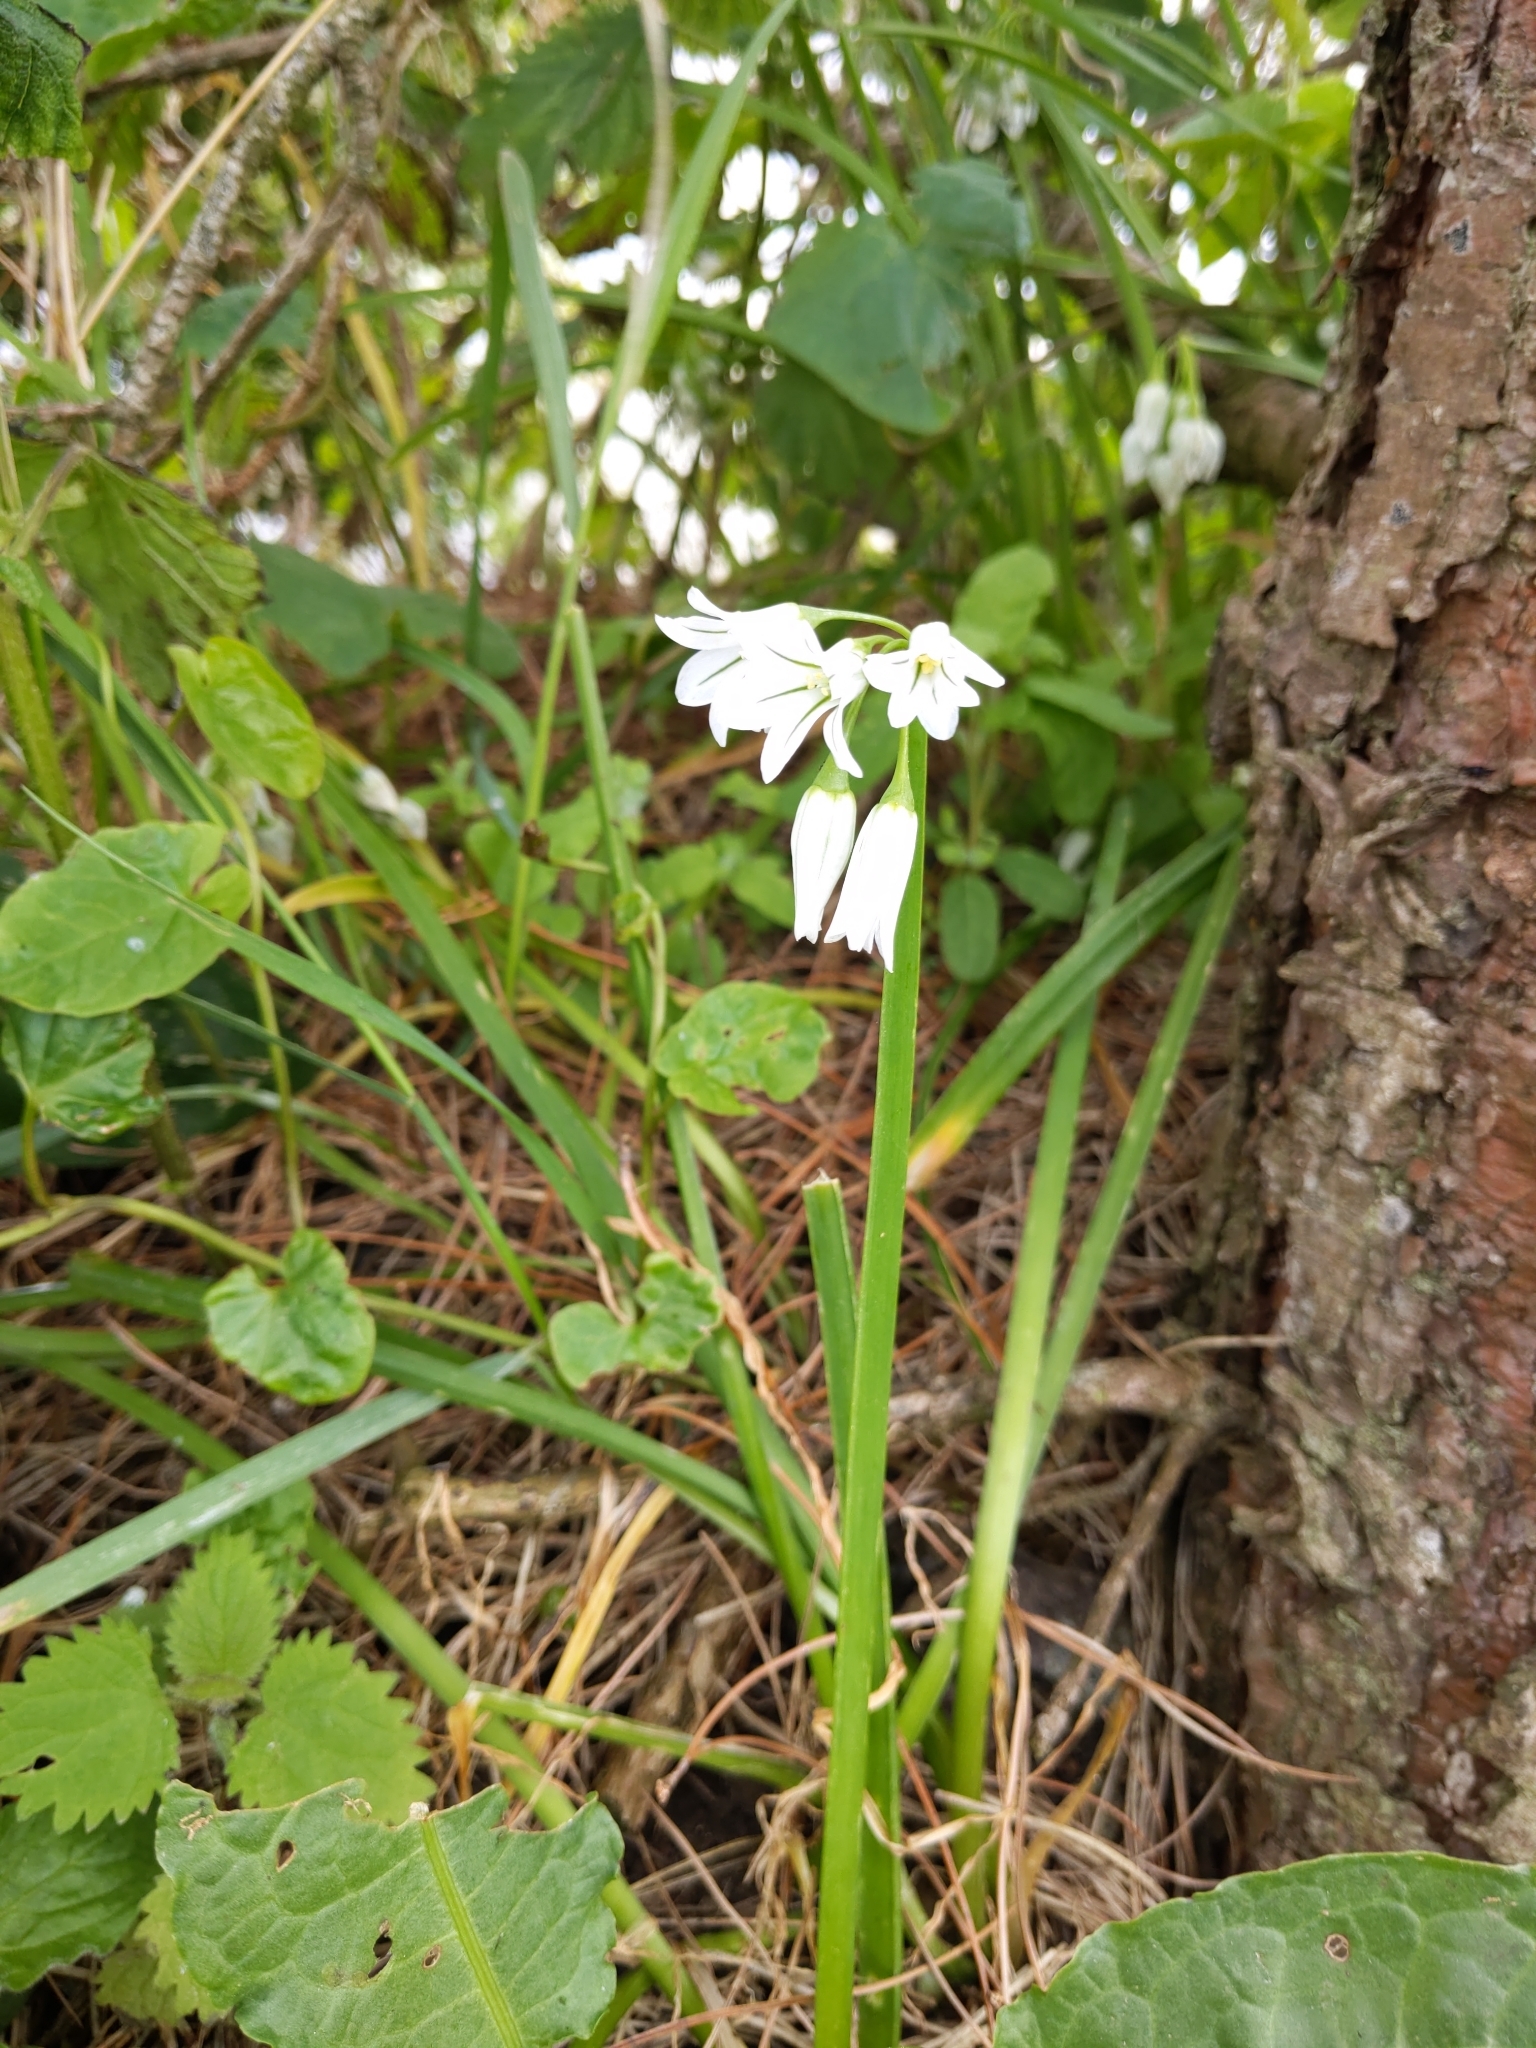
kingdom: Plantae
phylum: Tracheophyta
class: Liliopsida
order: Asparagales
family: Amaryllidaceae
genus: Allium
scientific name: Allium triquetrum
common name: Three-cornered garlic
